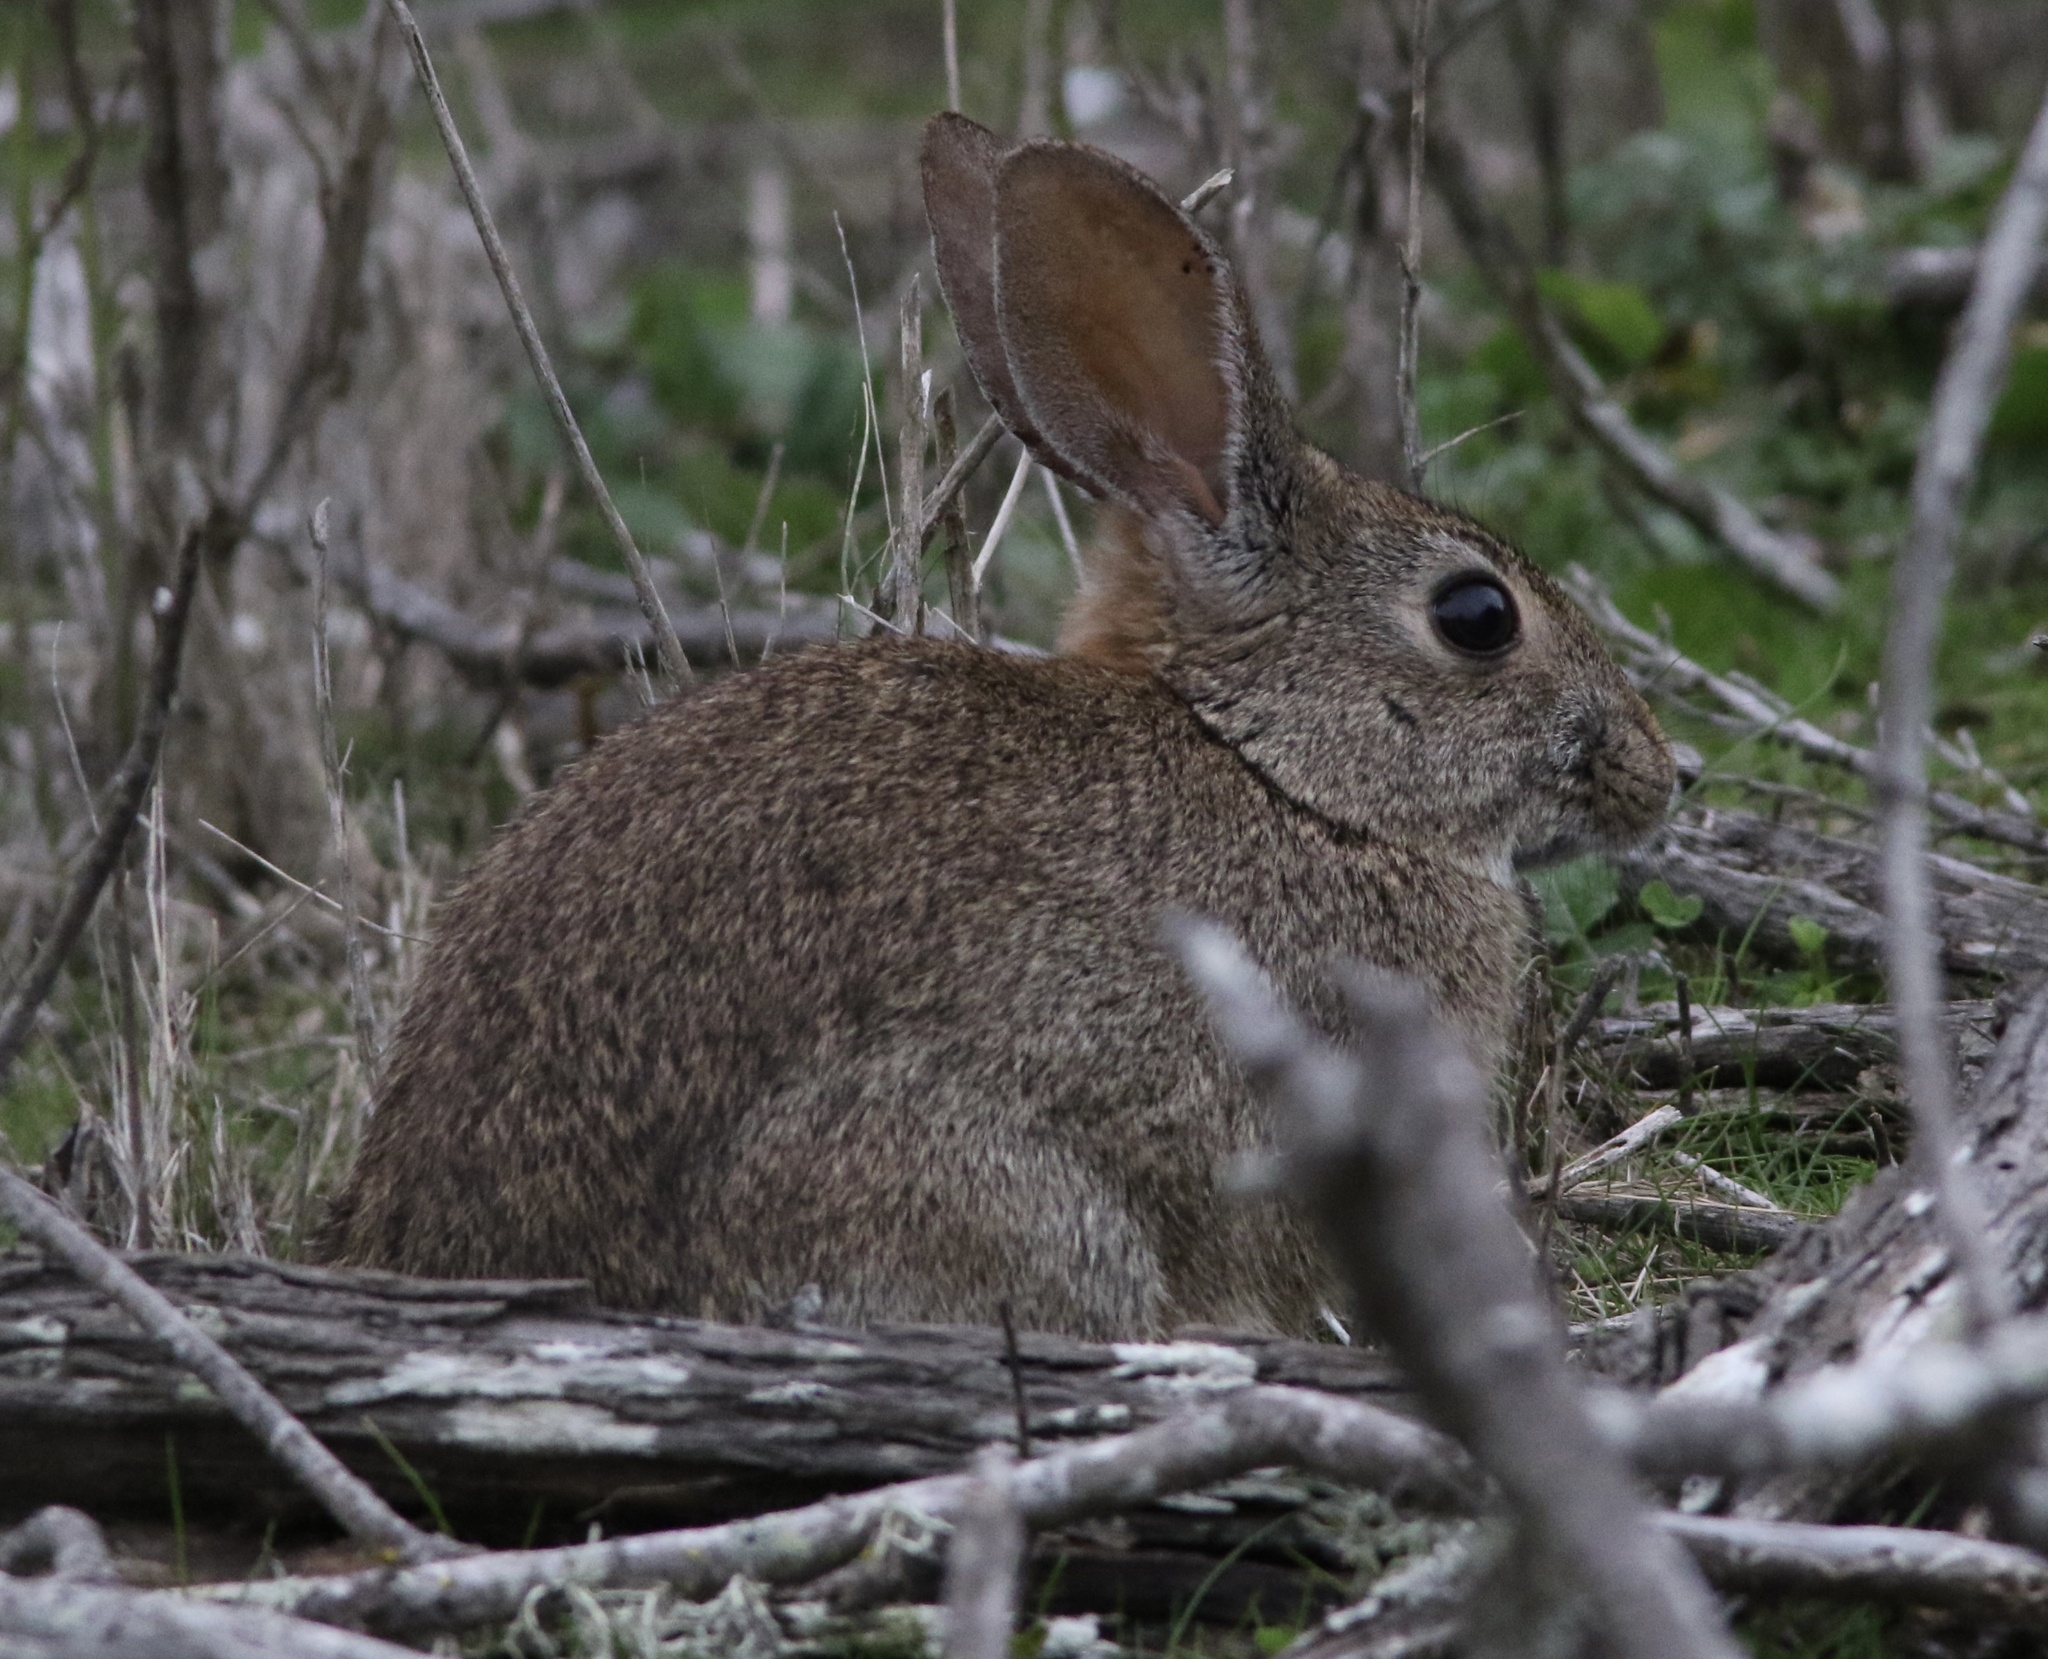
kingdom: Animalia
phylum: Chordata
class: Mammalia
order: Lagomorpha
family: Leporidae
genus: Sylvilagus
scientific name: Sylvilagus bachmani
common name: Brush rabbit
